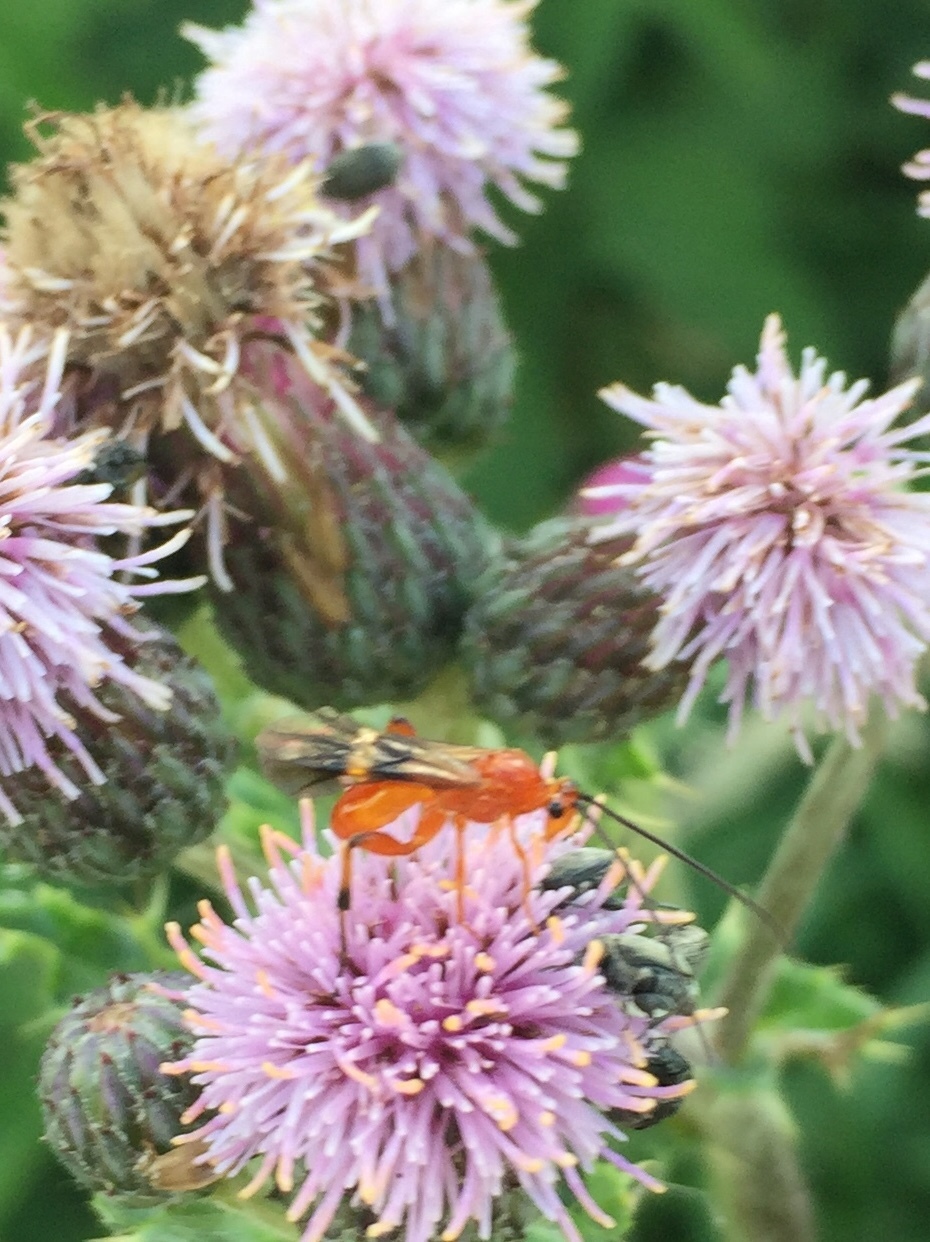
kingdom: Animalia
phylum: Arthropoda
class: Insecta
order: Hymenoptera
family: Braconidae
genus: Cremnops
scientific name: Cremnops desertor
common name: Braconid wasp
